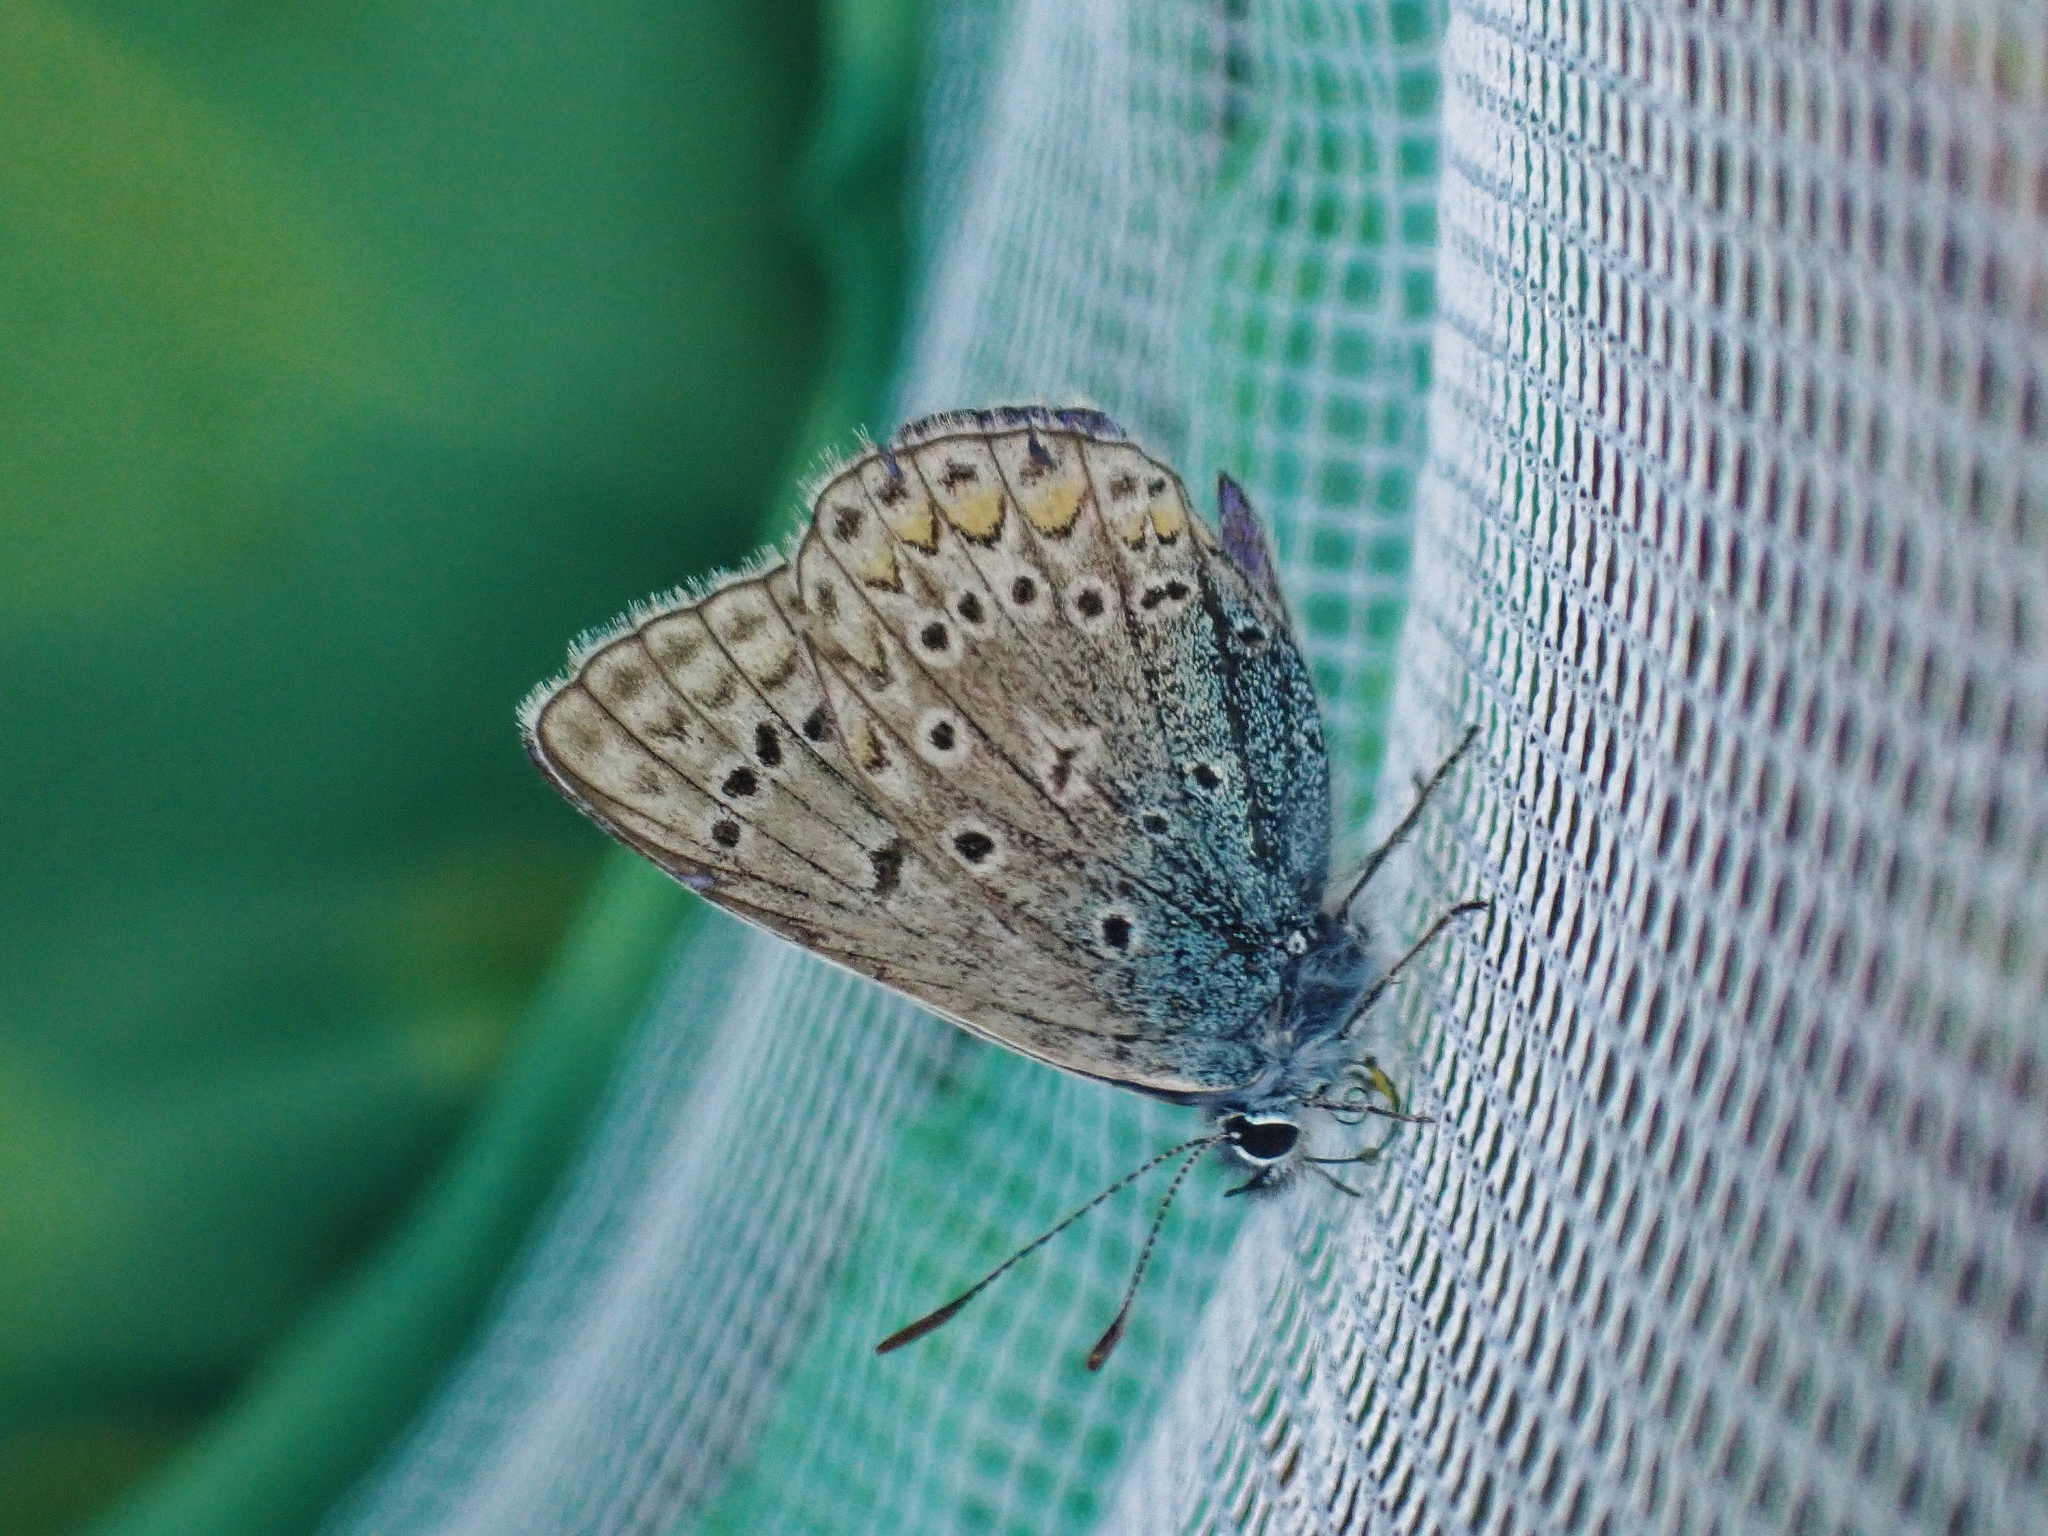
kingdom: Animalia
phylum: Arthropoda
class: Insecta
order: Lepidoptera
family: Lycaenidae
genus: Polyommatus
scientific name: Polyommatus icarus
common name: Common blue
